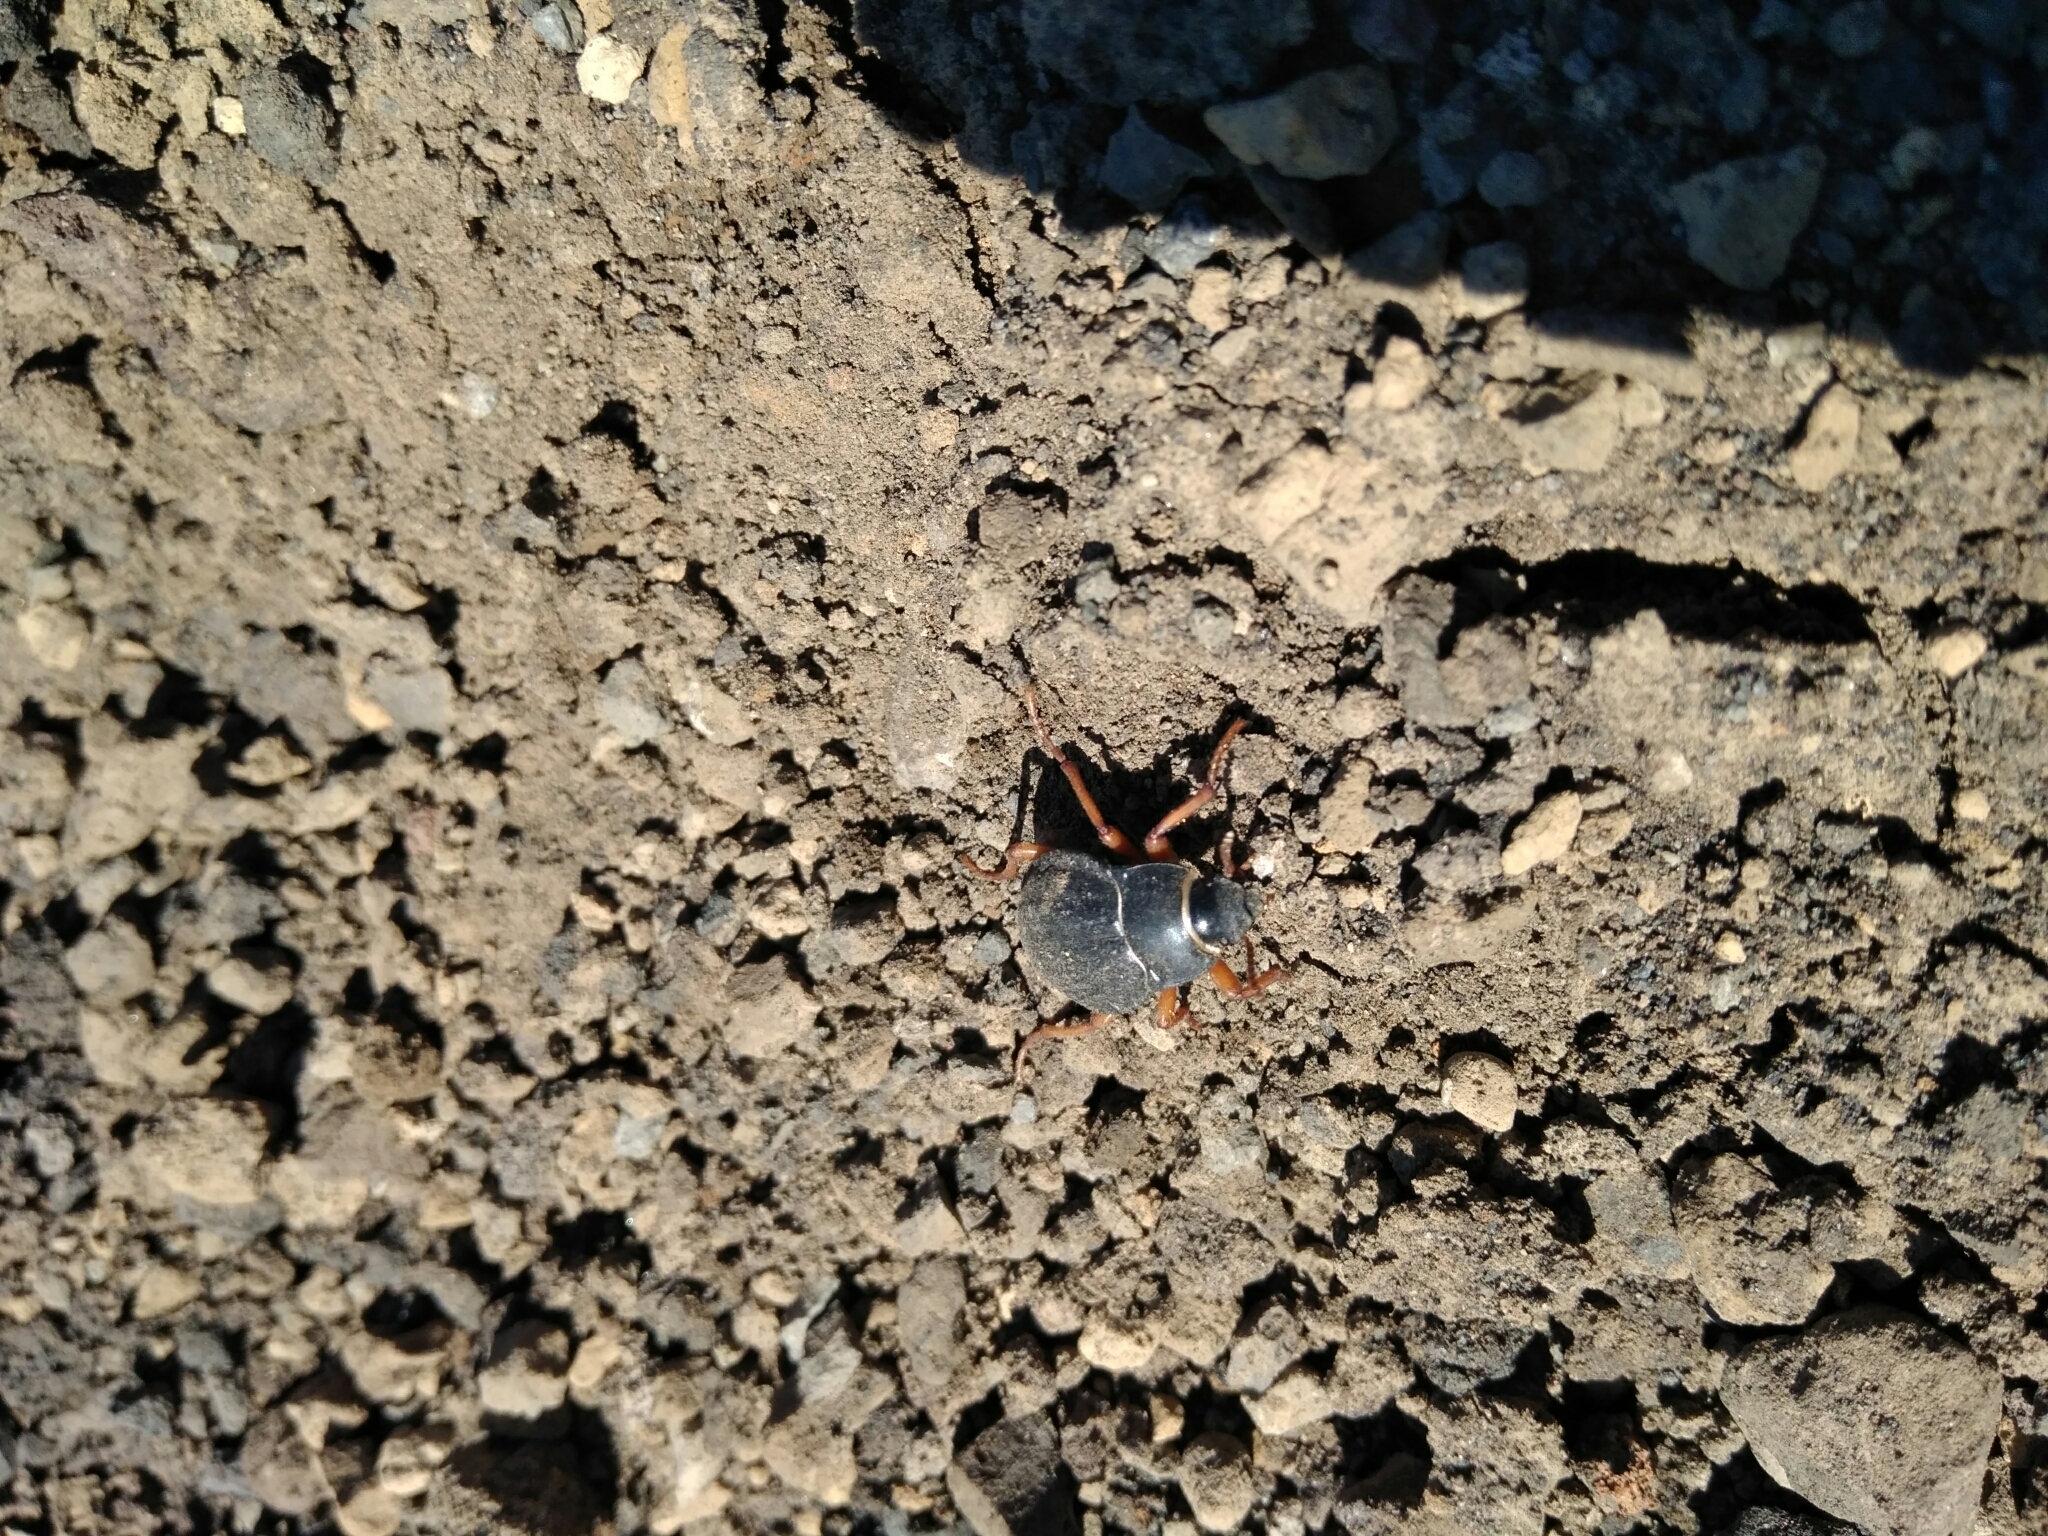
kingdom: Animalia
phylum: Arthropoda
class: Insecta
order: Coleoptera
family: Tenebrionidae
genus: Nyctelia
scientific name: Nyctelia
